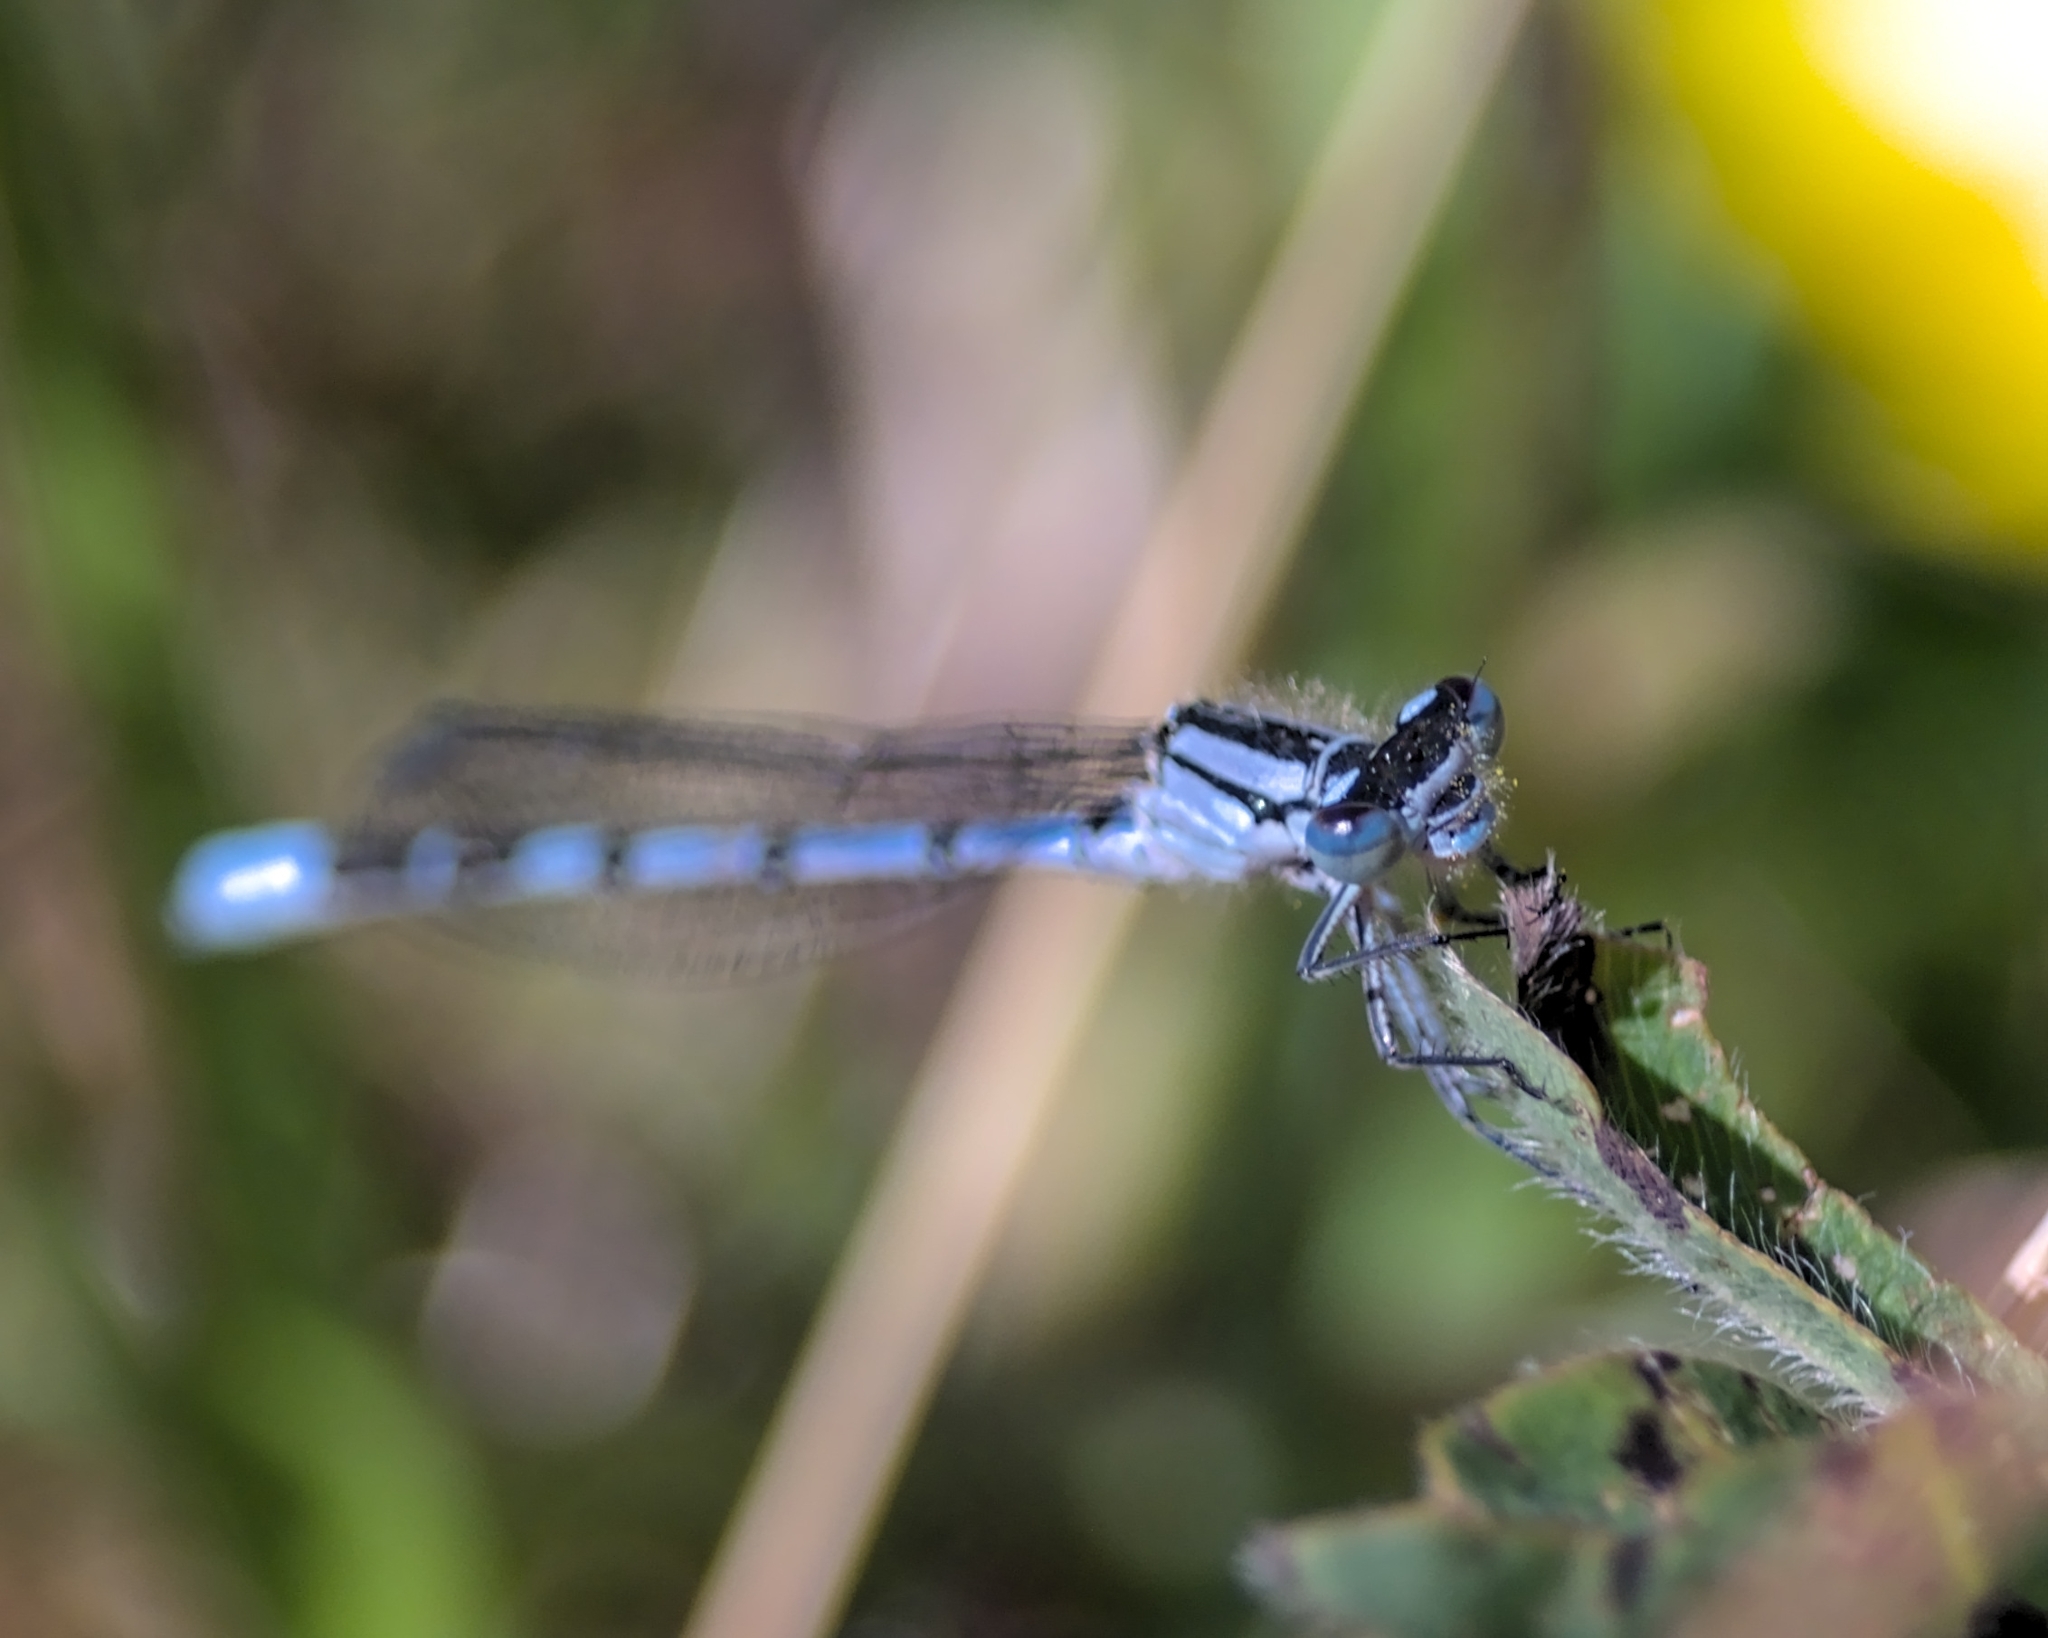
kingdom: Animalia
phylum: Arthropoda
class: Insecta
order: Odonata
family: Coenagrionidae
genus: Enallagma
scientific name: Enallagma cyathigerum
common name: Common blue damselfly
